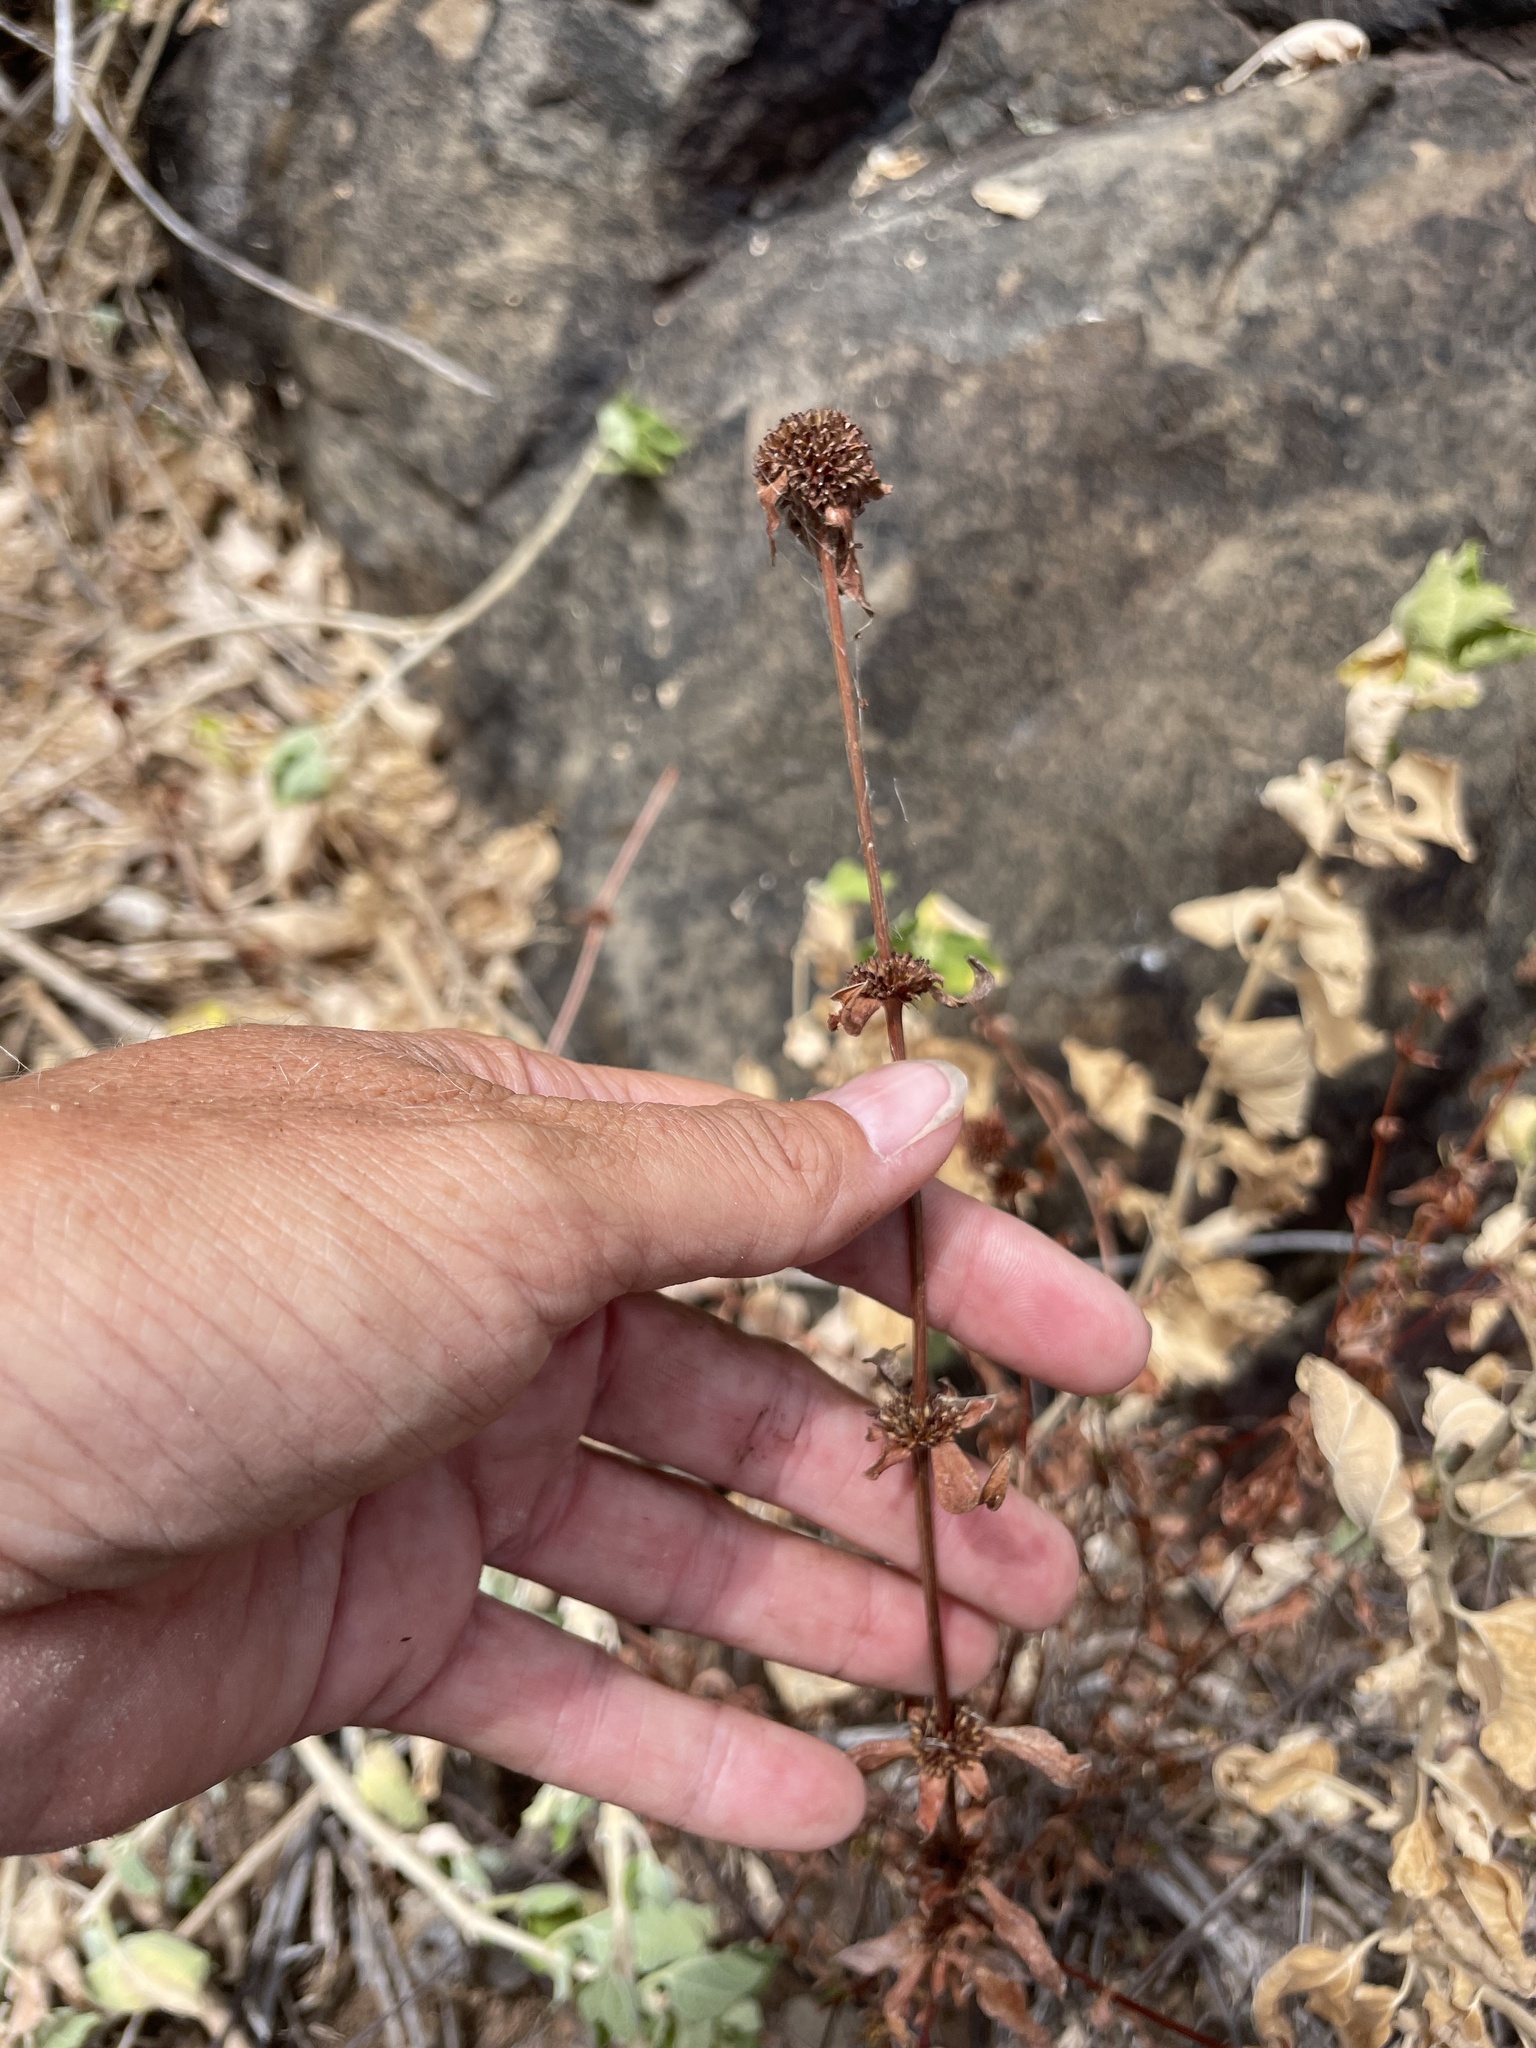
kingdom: Plantae
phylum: Tracheophyta
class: Magnoliopsida
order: Gentianales
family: Rubiaceae
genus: Spermacoce
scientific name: Spermacoce nesiotica
